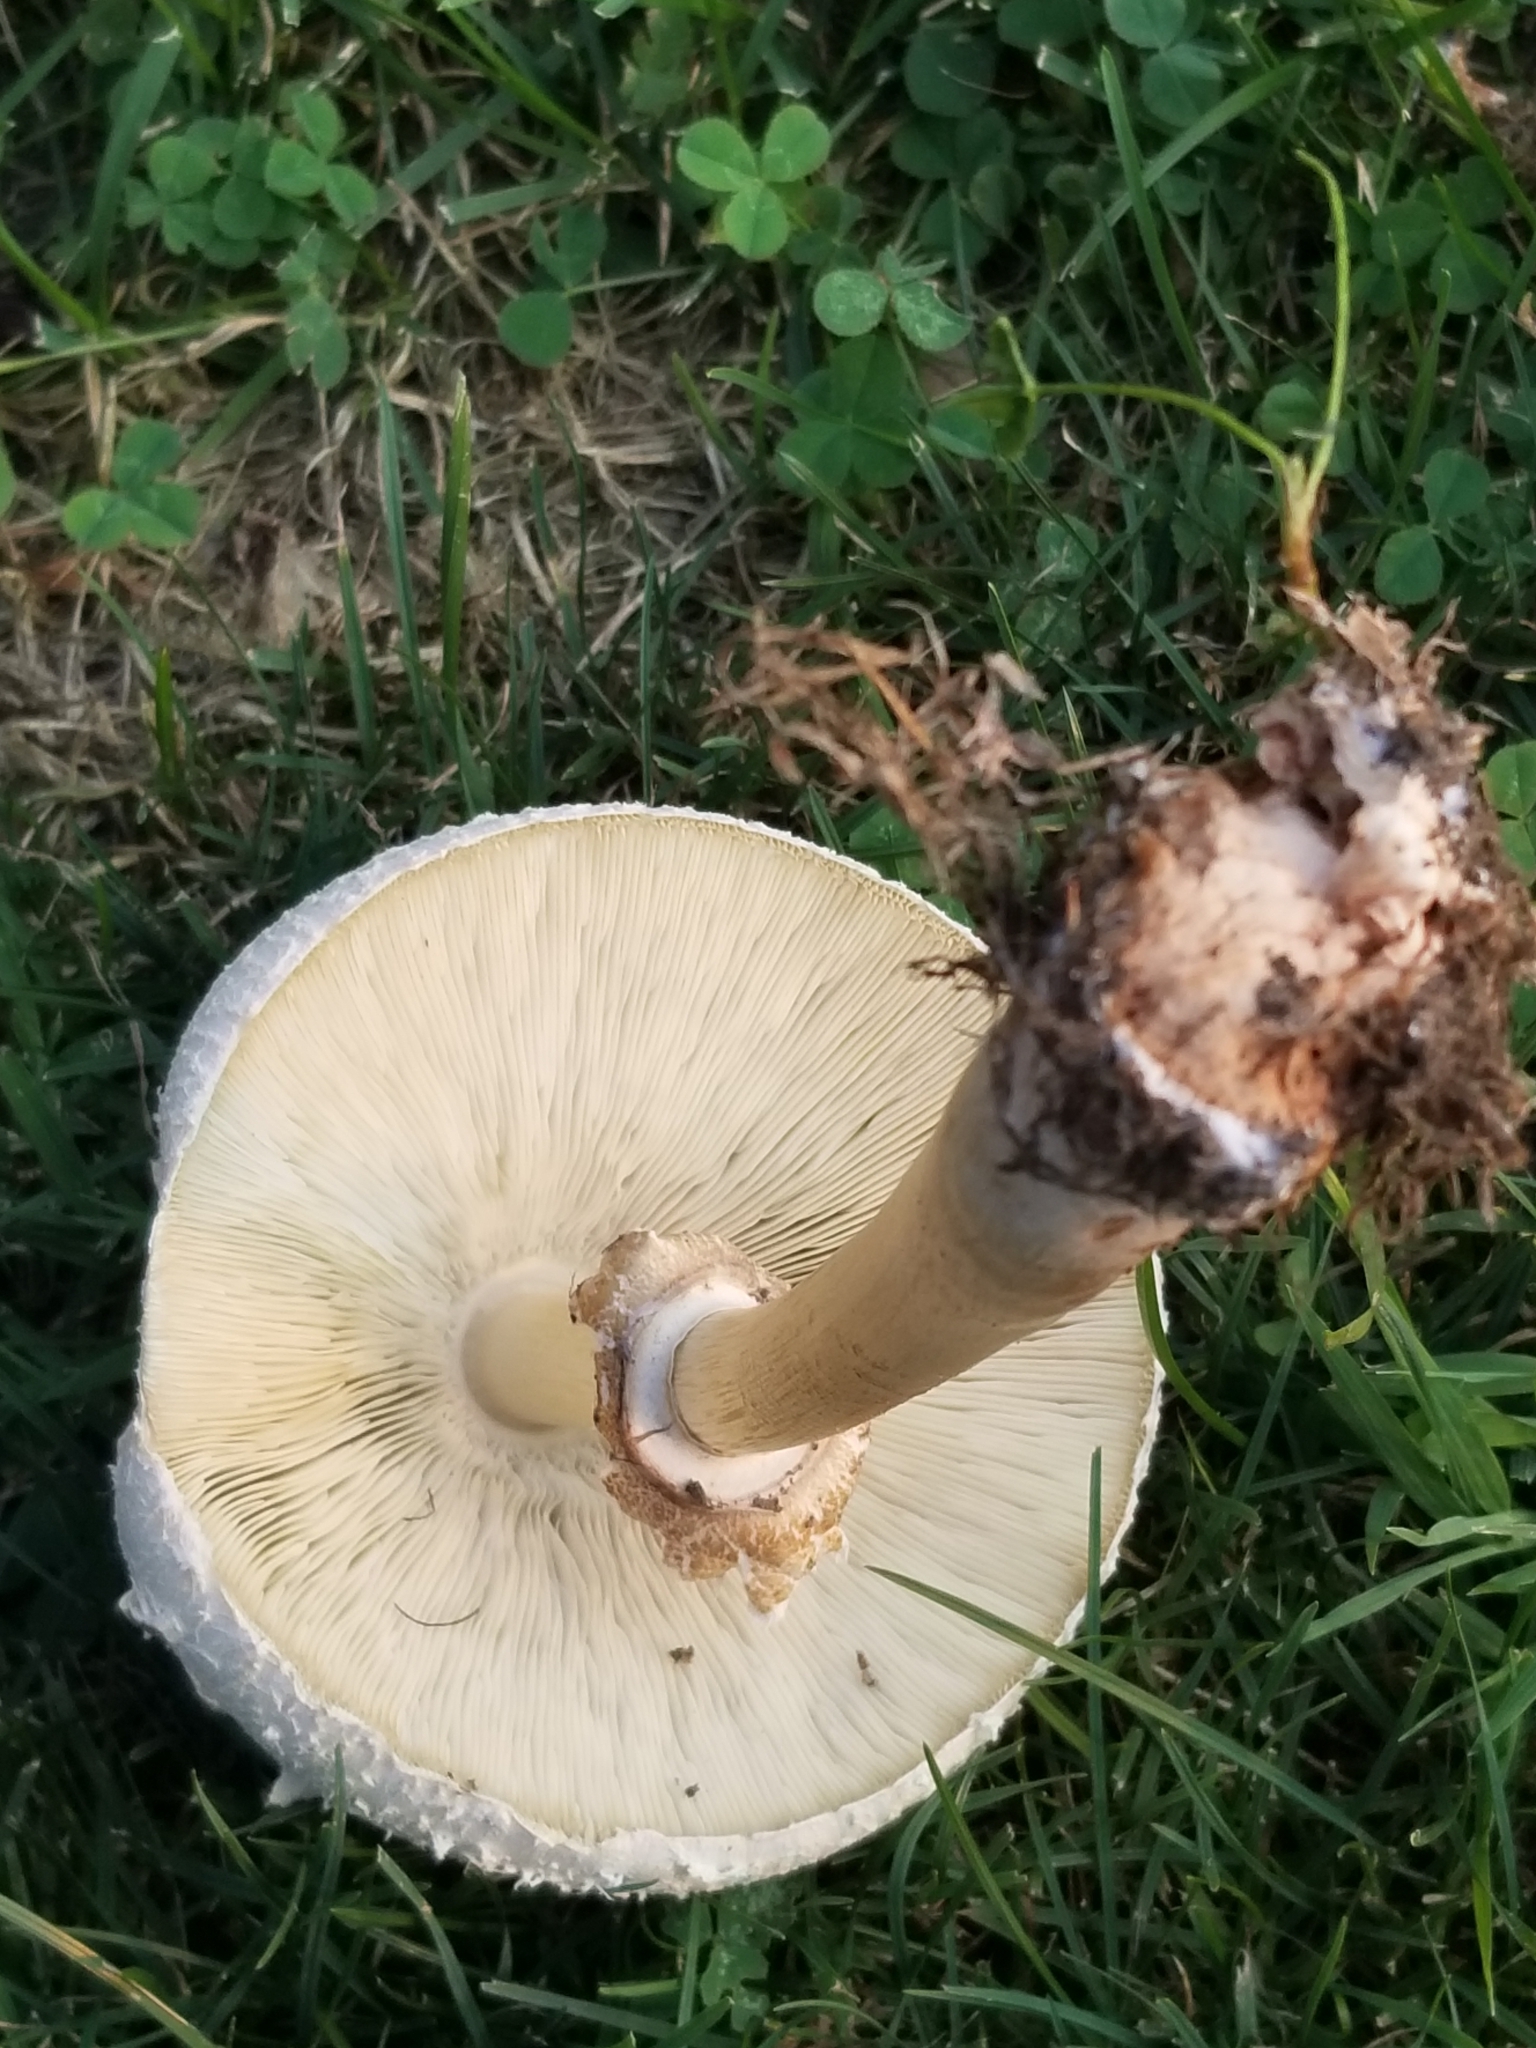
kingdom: Fungi
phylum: Basidiomycota
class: Agaricomycetes
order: Agaricales
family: Agaricaceae
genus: Chlorophyllum
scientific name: Chlorophyllum molybdites
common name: False parasol
